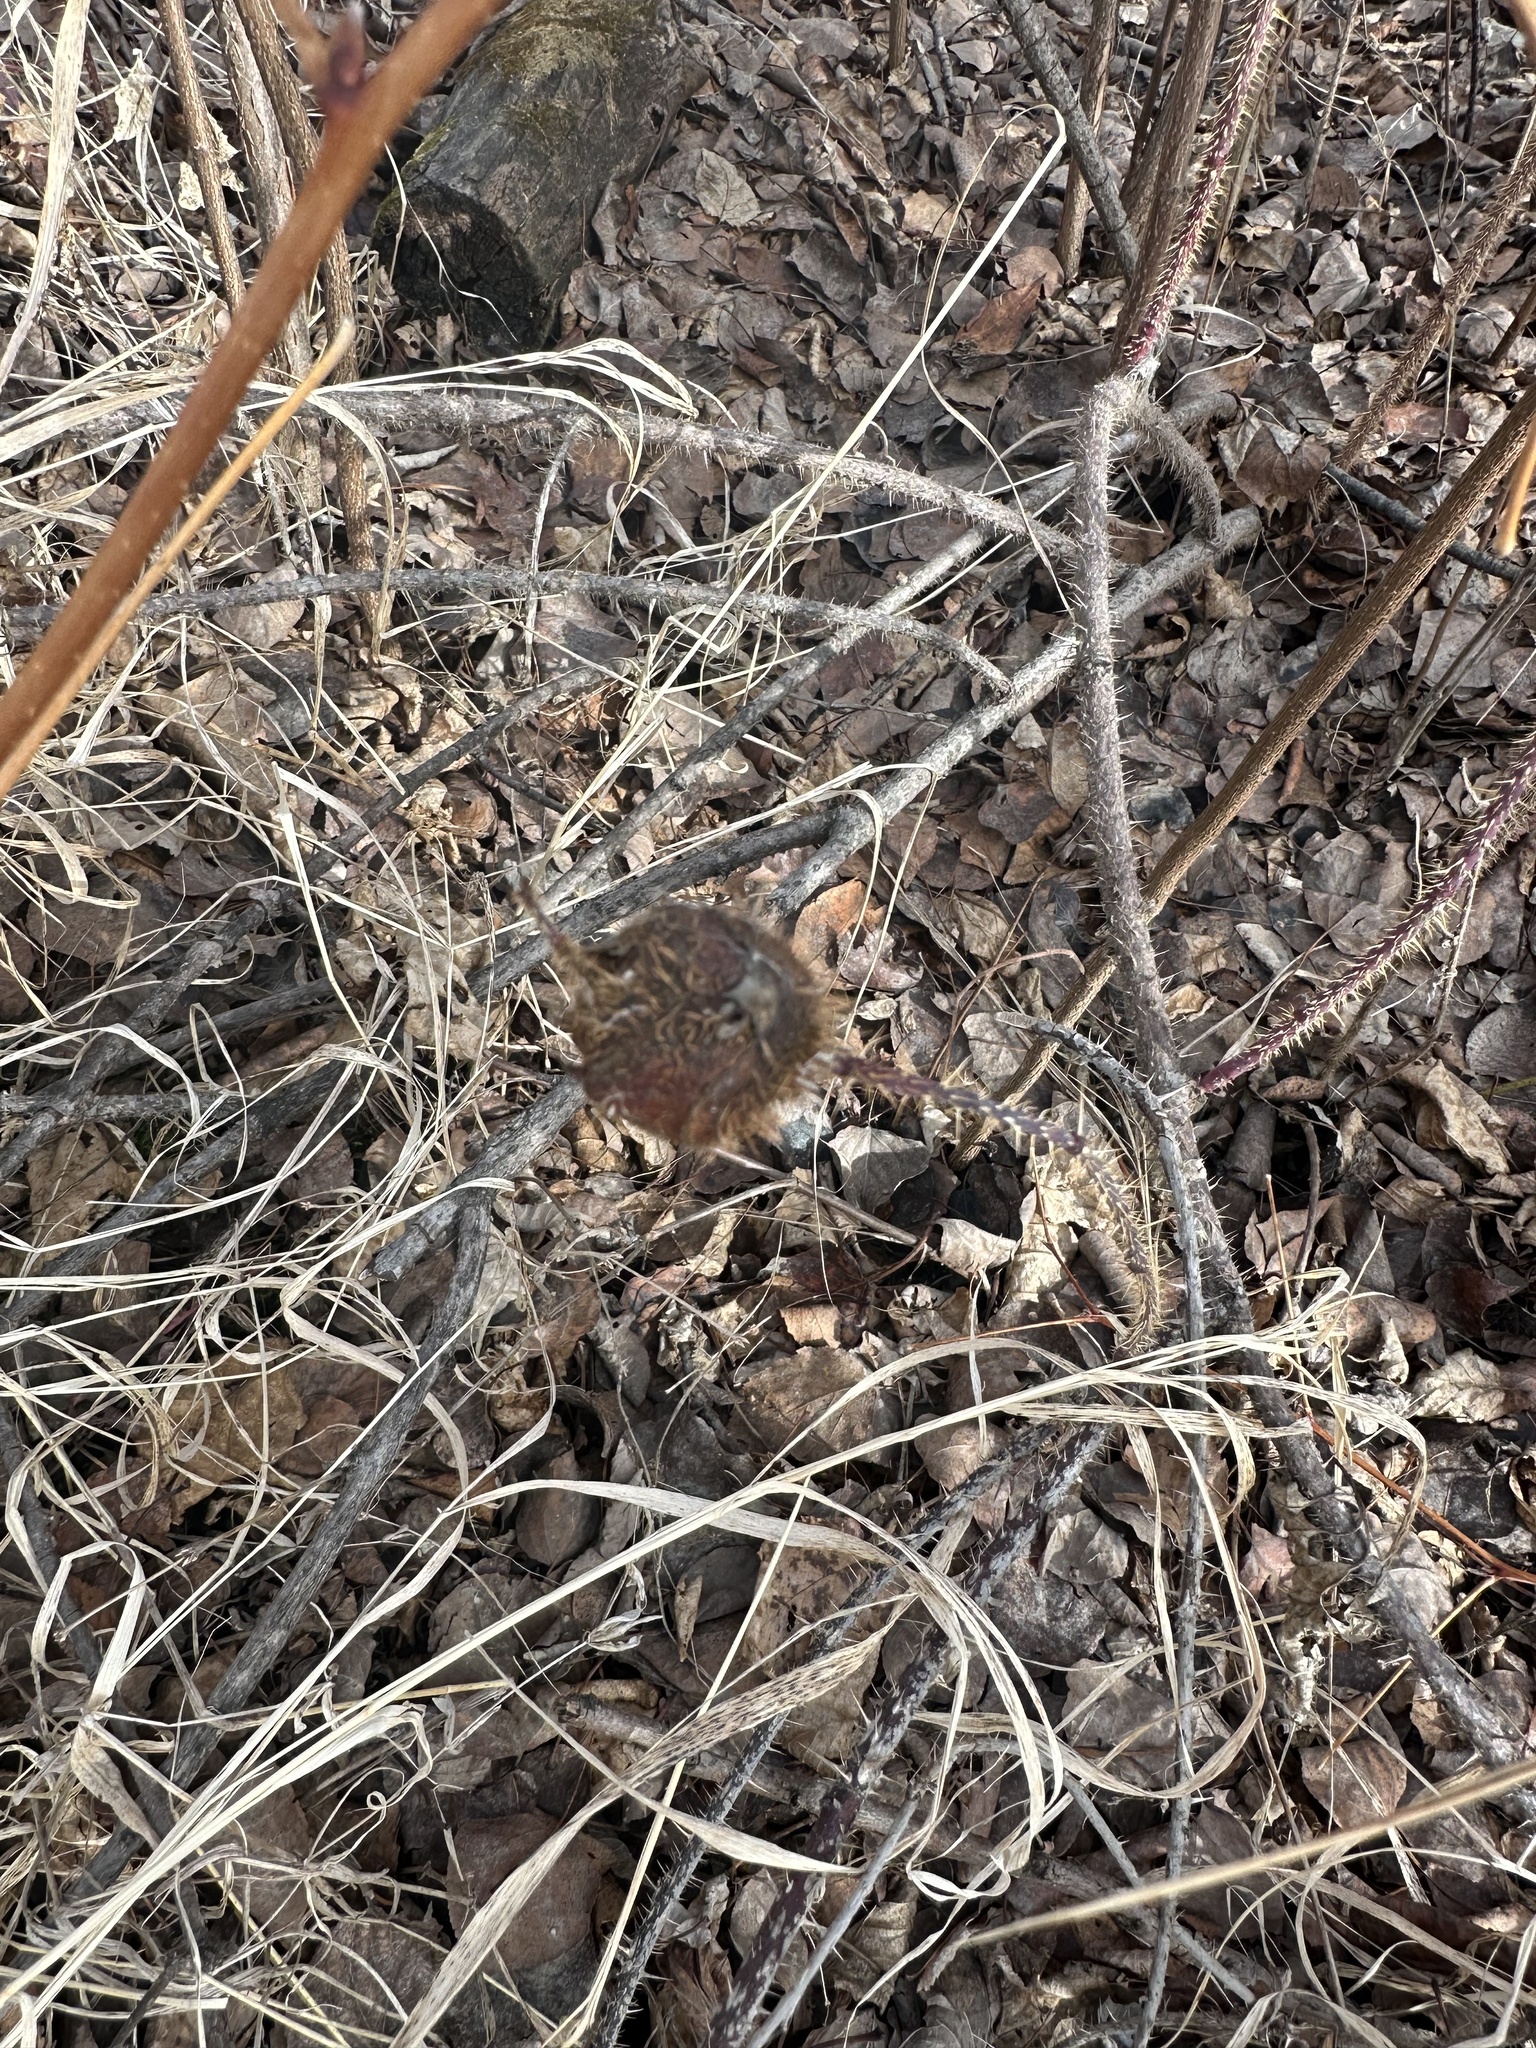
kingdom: Animalia
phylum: Arthropoda
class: Insecta
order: Hymenoptera
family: Cynipidae
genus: Diplolepis
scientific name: Diplolepis spinosa
